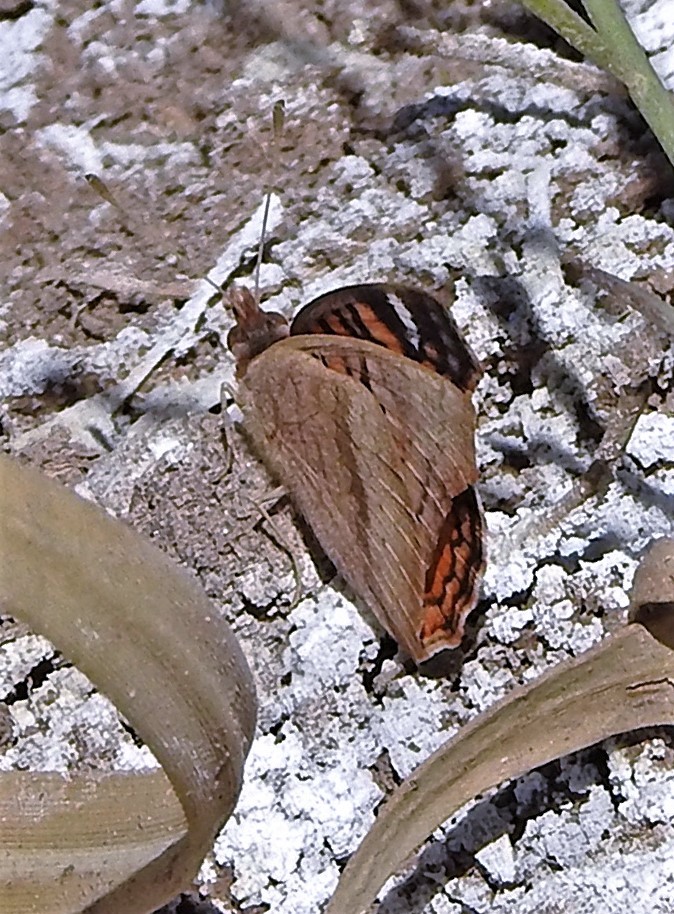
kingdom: Animalia
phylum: Arthropoda
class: Insecta
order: Lepidoptera
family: Nymphalidae
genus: Junonia
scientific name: Junonia vestina
